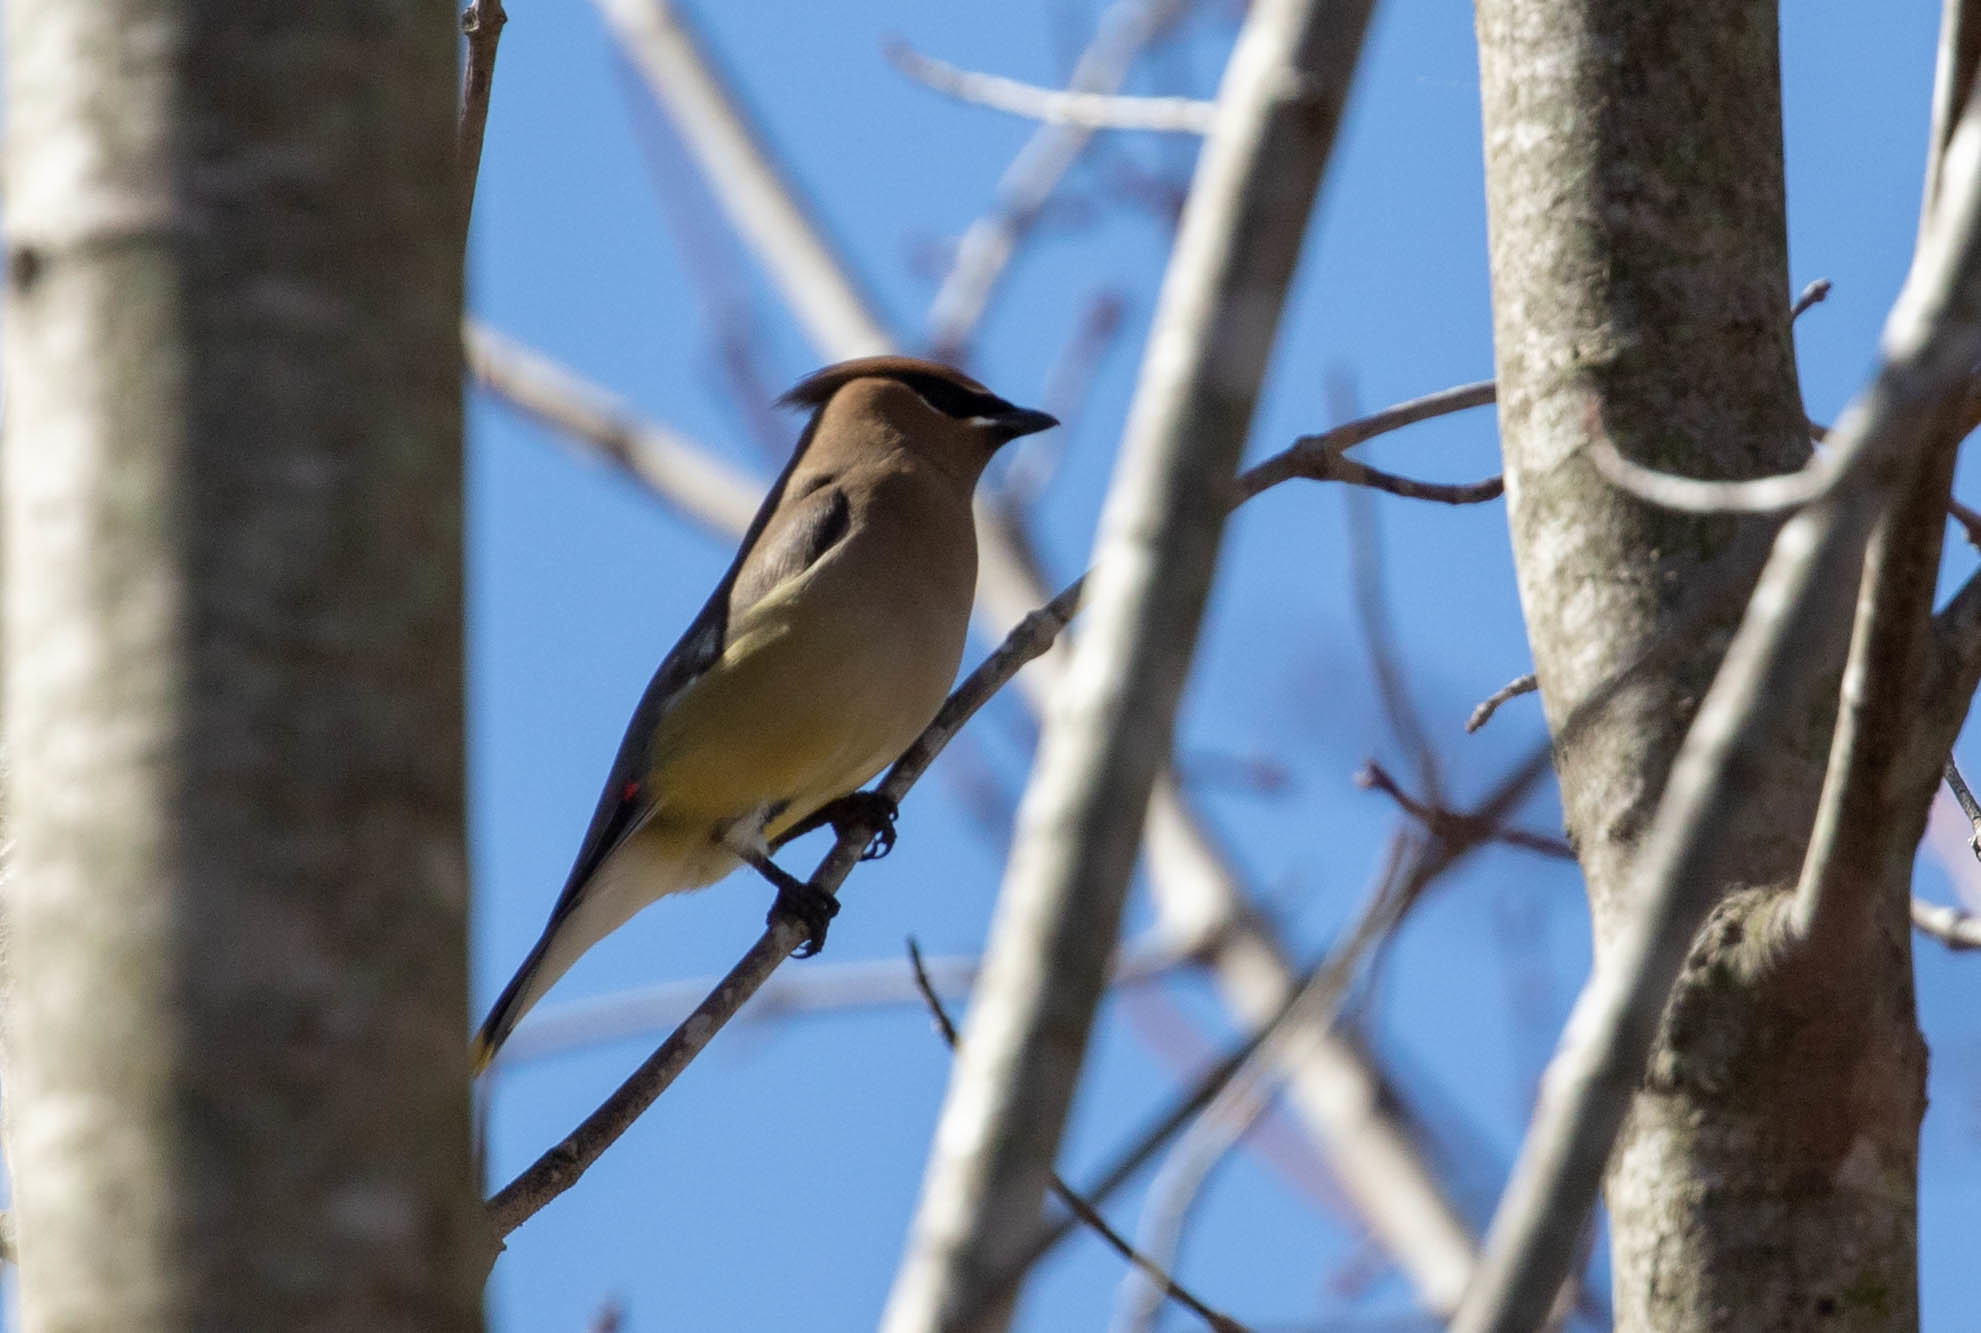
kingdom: Animalia
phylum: Chordata
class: Aves
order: Passeriformes
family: Bombycillidae
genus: Bombycilla
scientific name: Bombycilla cedrorum
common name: Cedar waxwing
